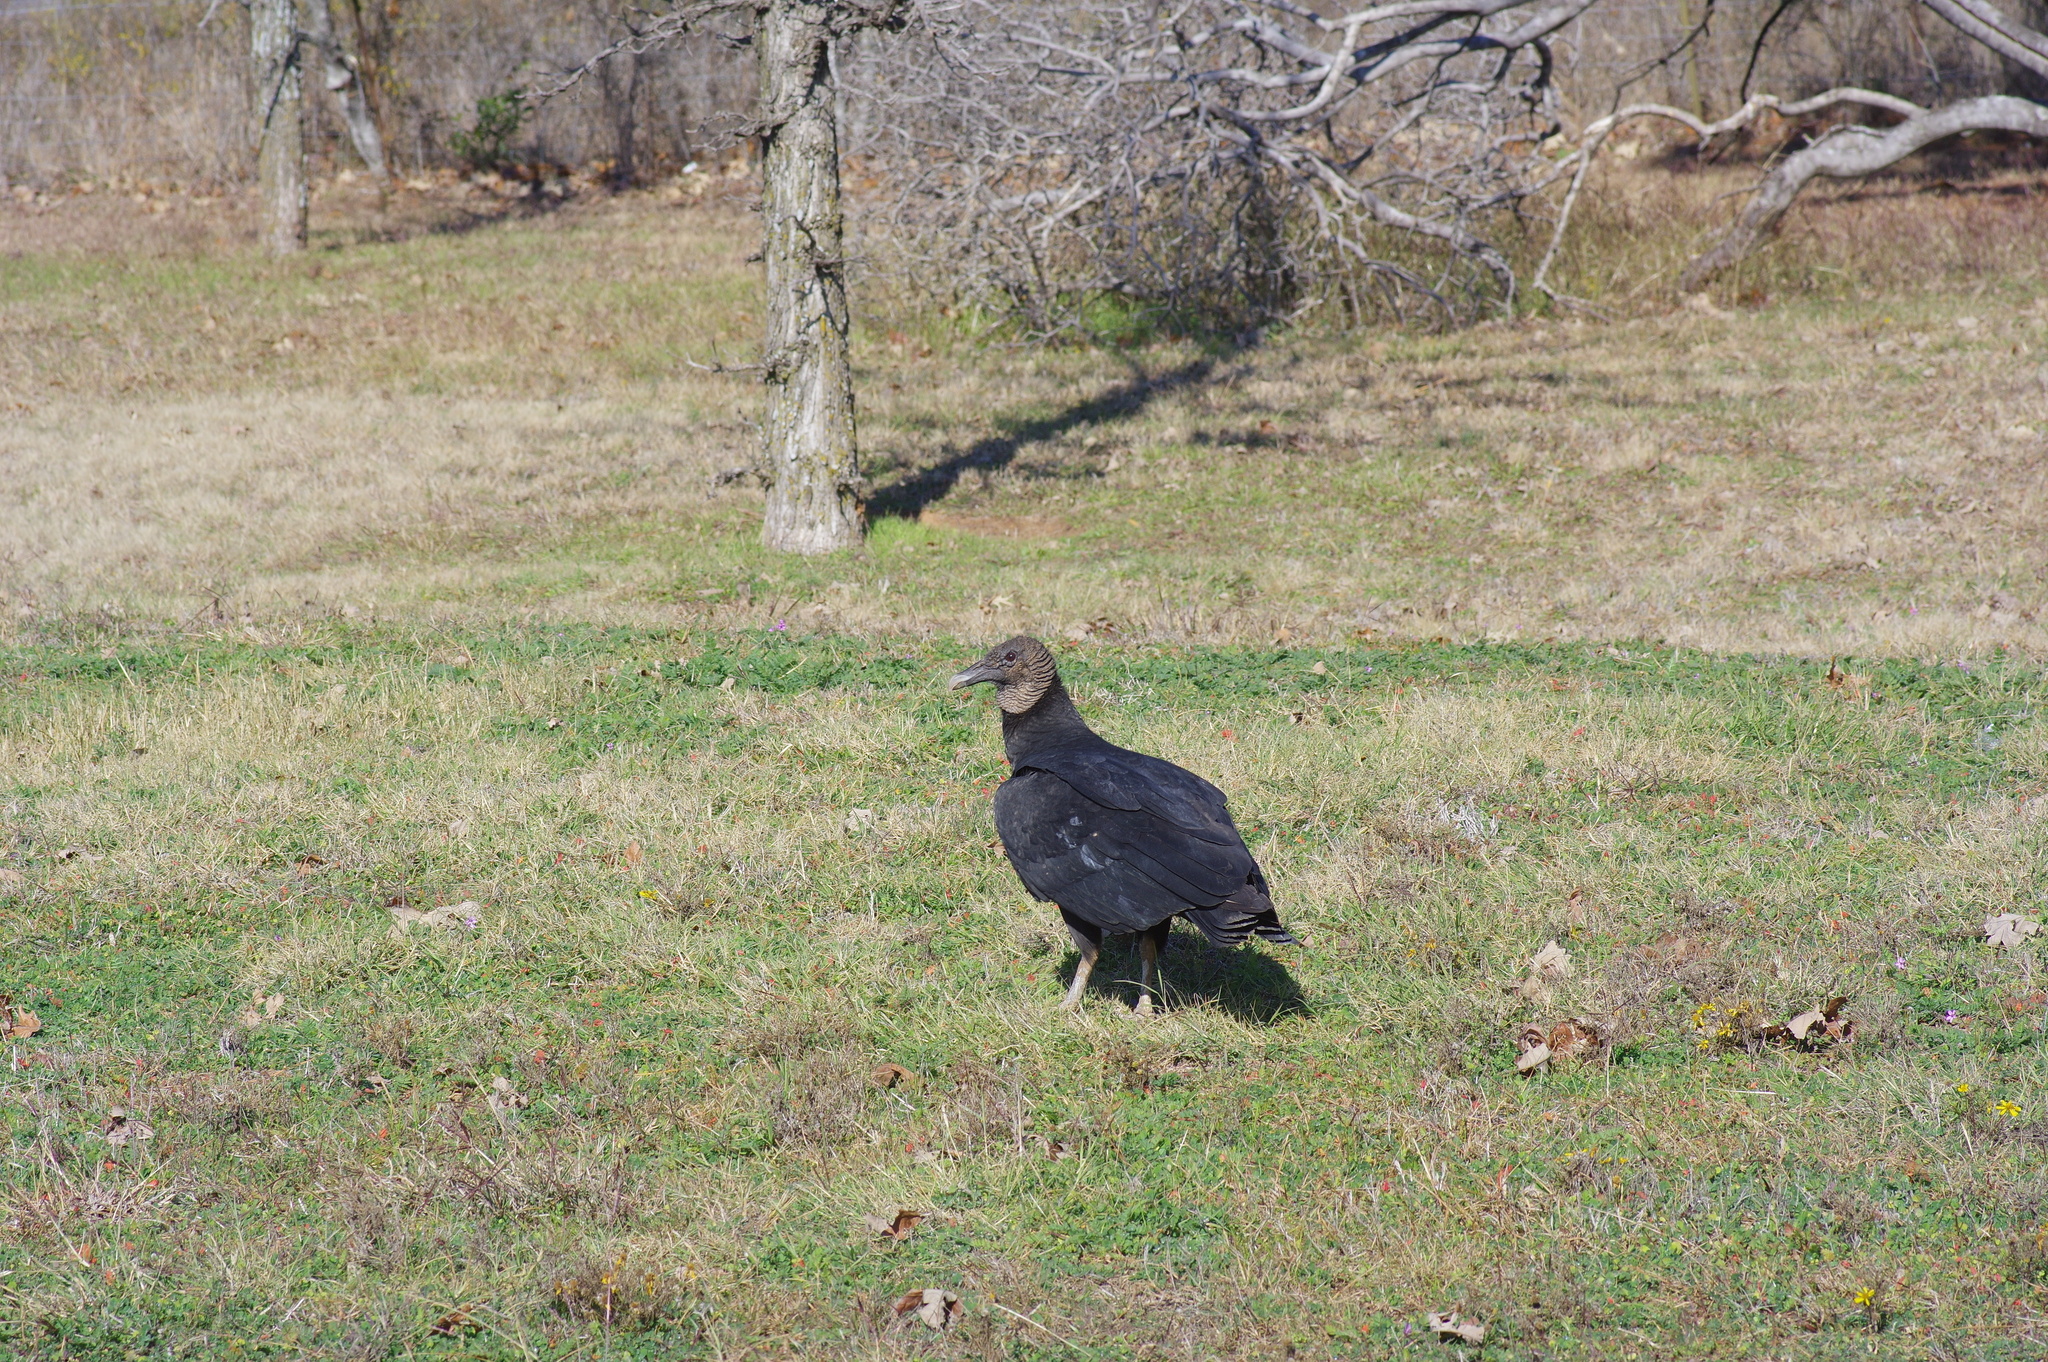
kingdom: Animalia
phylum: Chordata
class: Aves
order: Accipitriformes
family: Cathartidae
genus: Coragyps
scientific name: Coragyps atratus
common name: Black vulture
